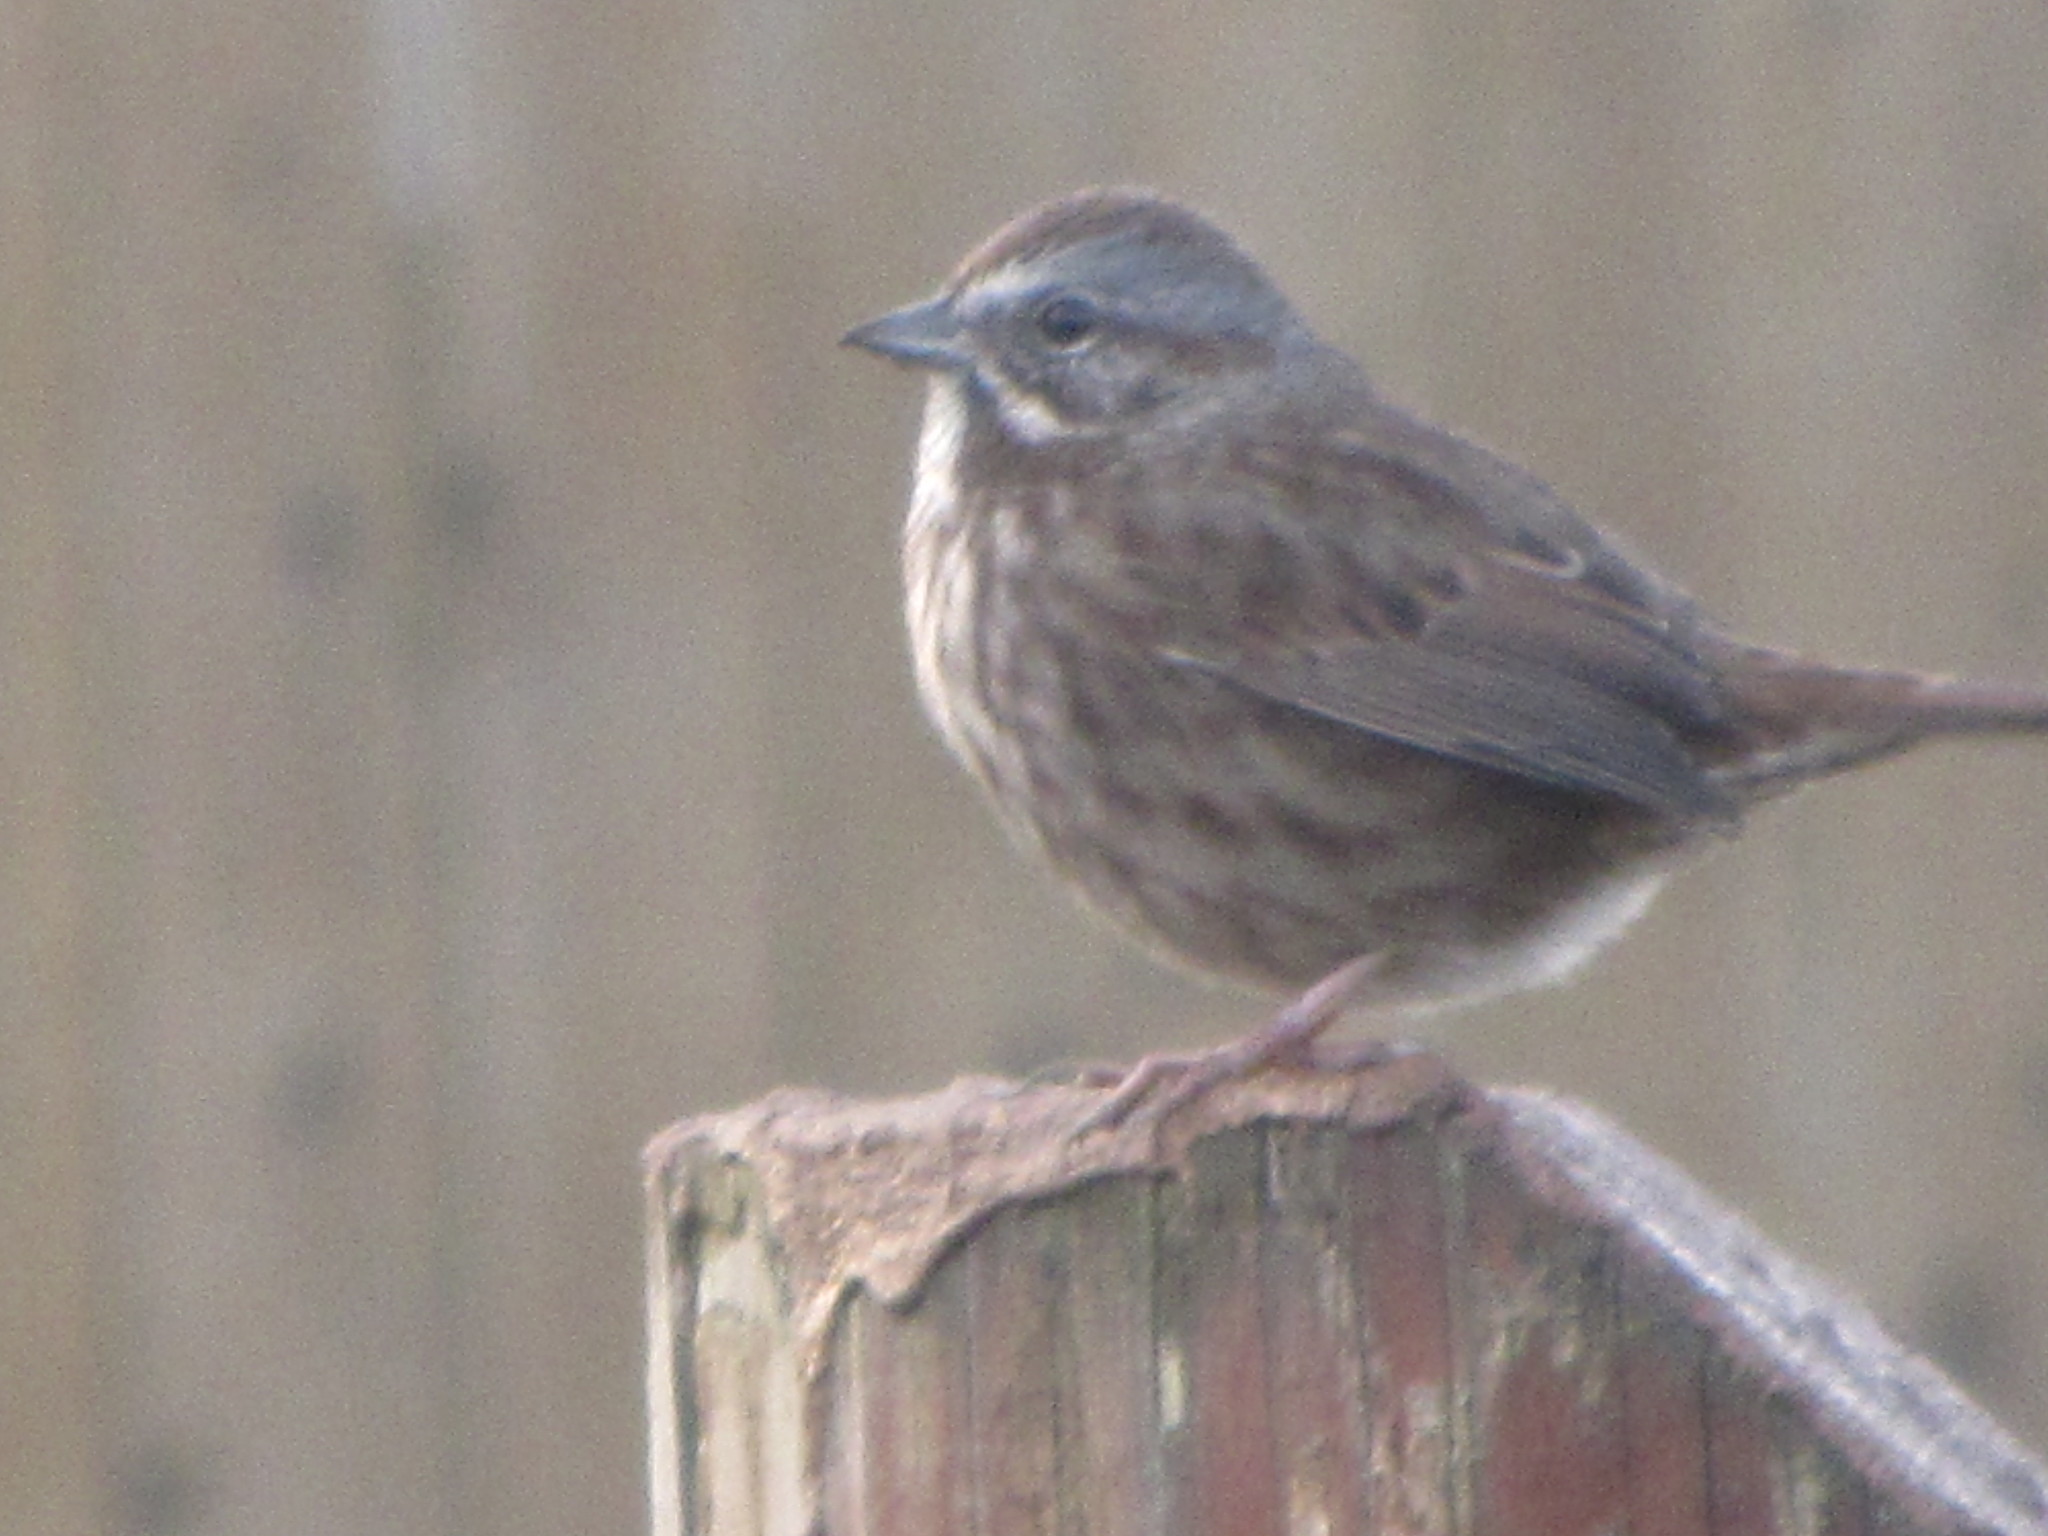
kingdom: Animalia
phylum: Chordata
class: Aves
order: Passeriformes
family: Passerellidae
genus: Melospiza
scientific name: Melospiza melodia
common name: Song sparrow
